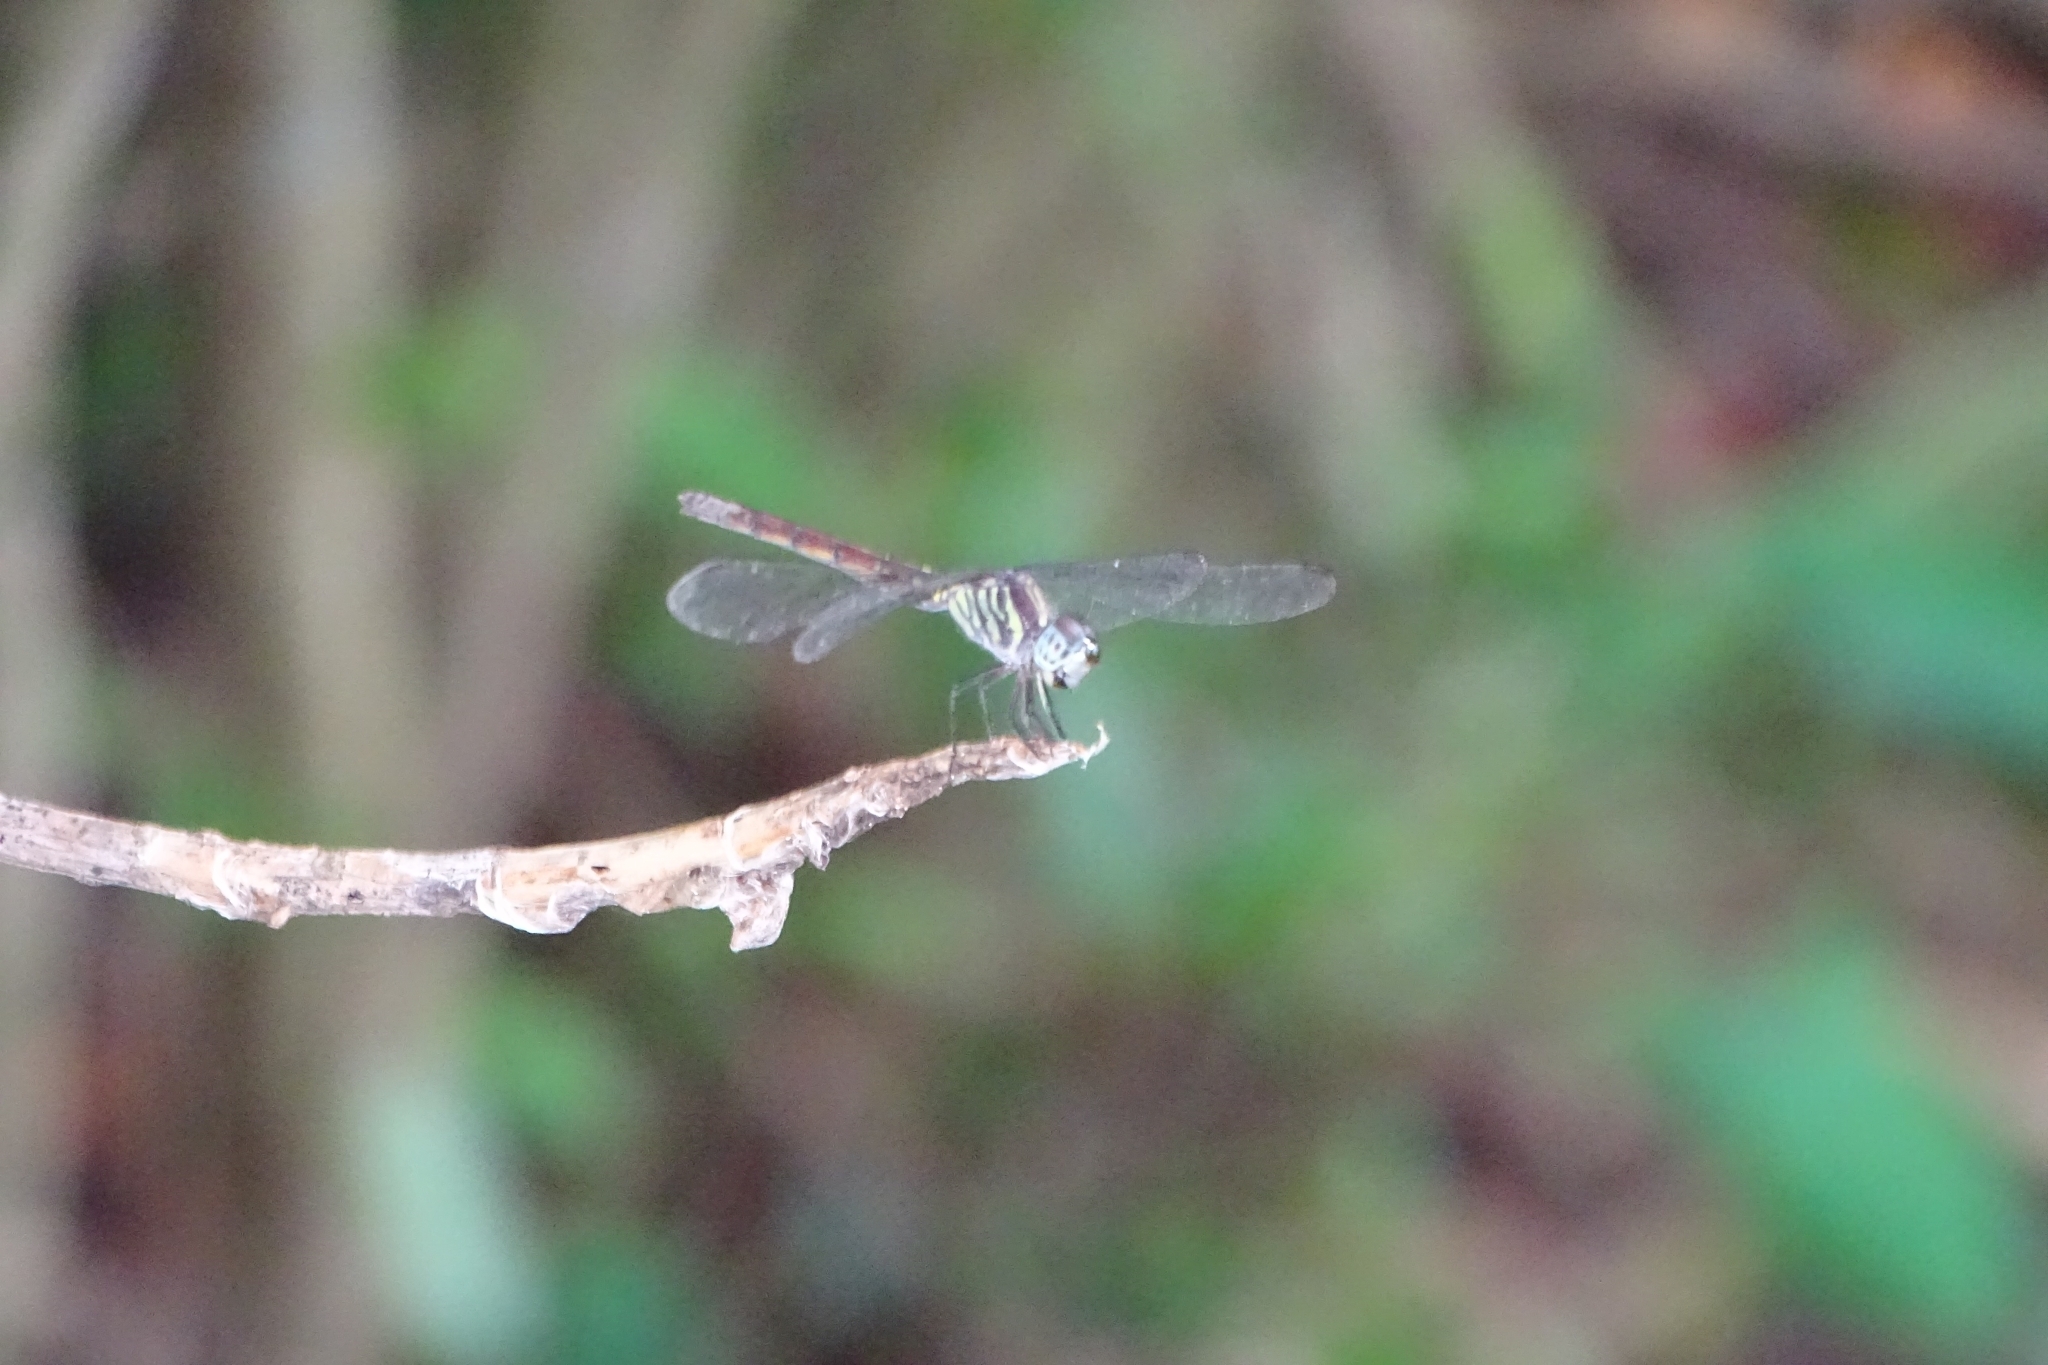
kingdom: Animalia
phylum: Arthropoda
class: Insecta
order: Odonata
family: Libellulidae
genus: Lathrecista
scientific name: Lathrecista asiatica
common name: Scarlet grenadier
